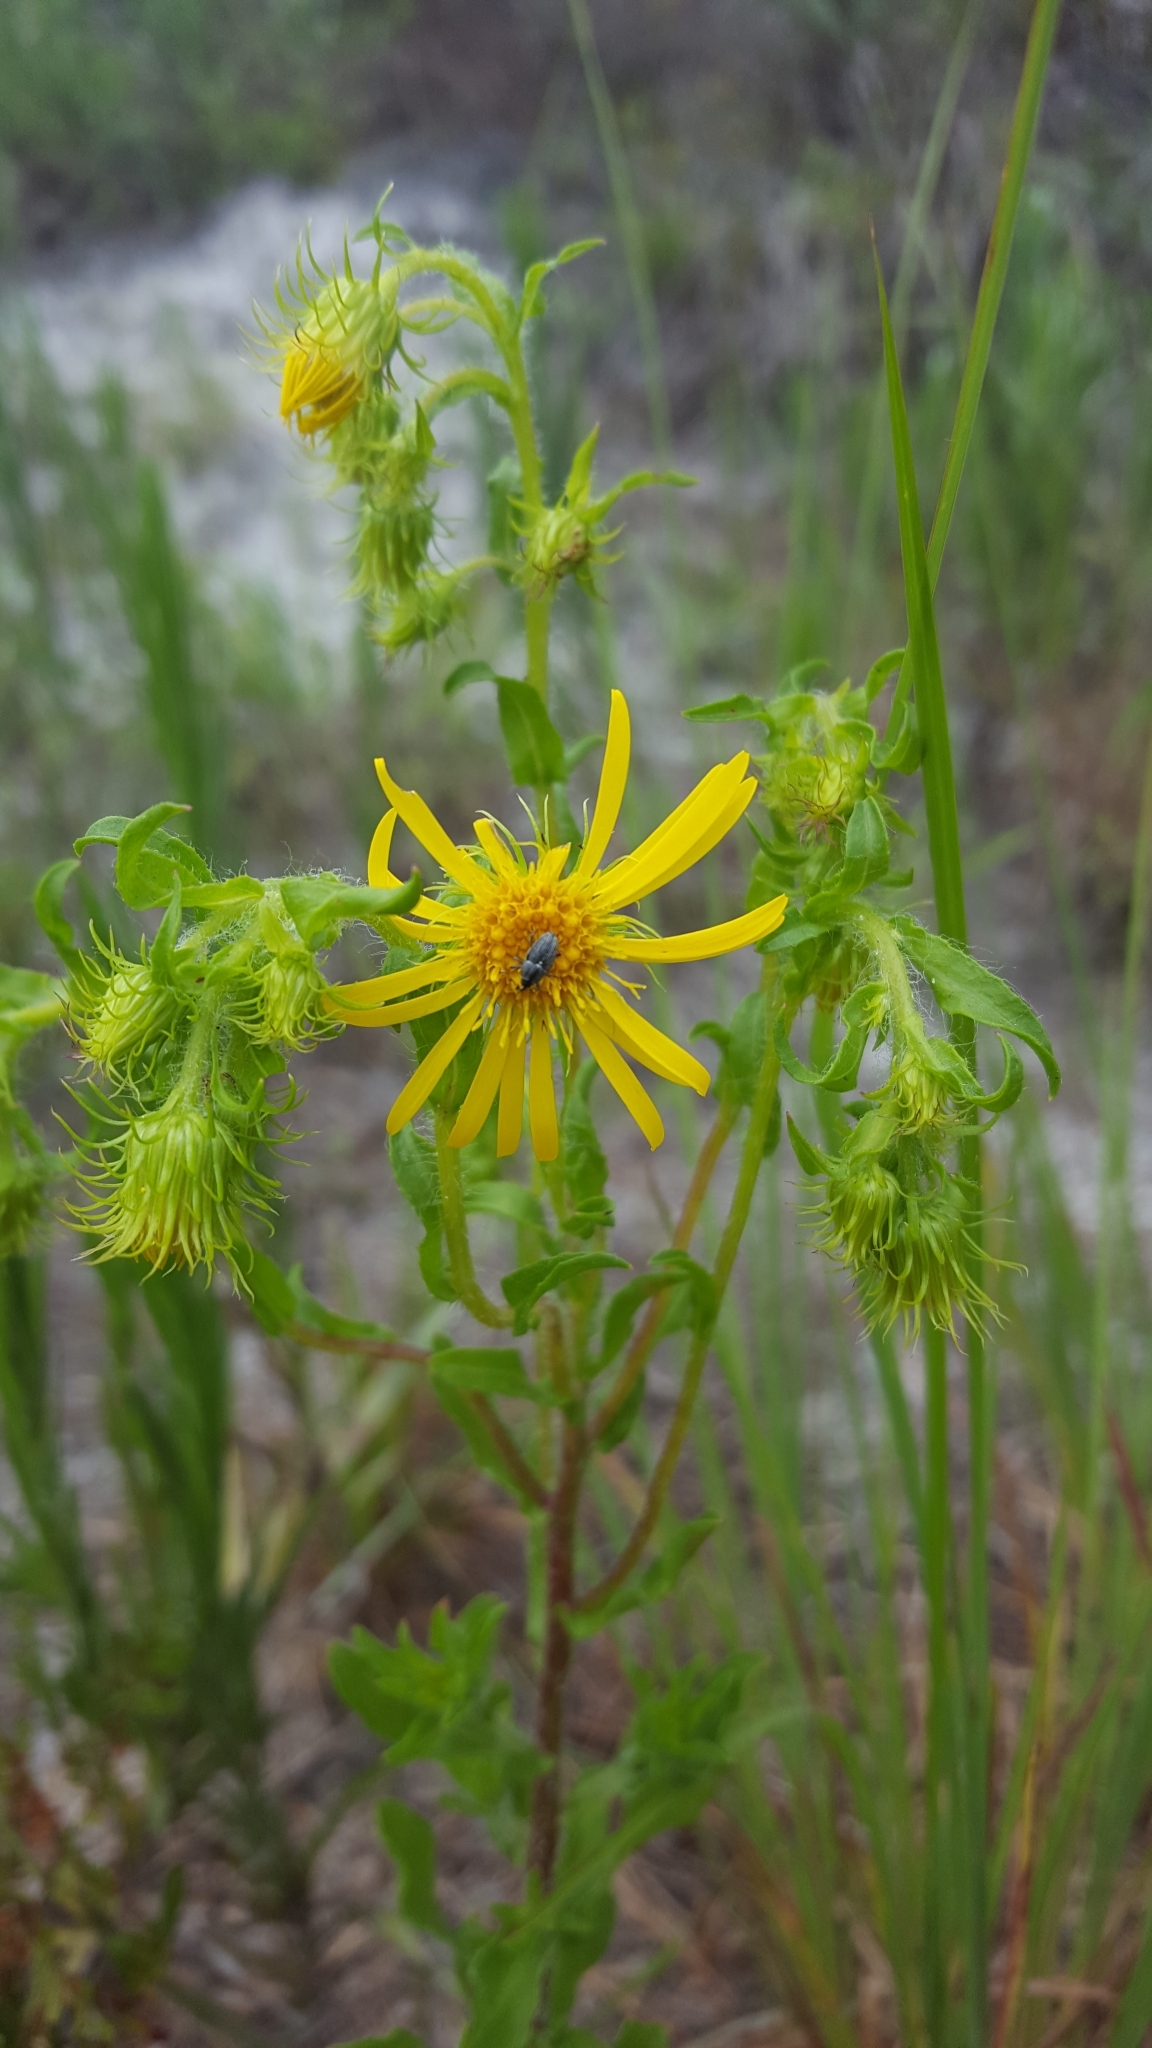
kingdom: Plantae
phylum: Tracheophyta
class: Magnoliopsida
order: Asterales
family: Asteraceae
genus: Chrysopsis
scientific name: Chrysopsis subulata
